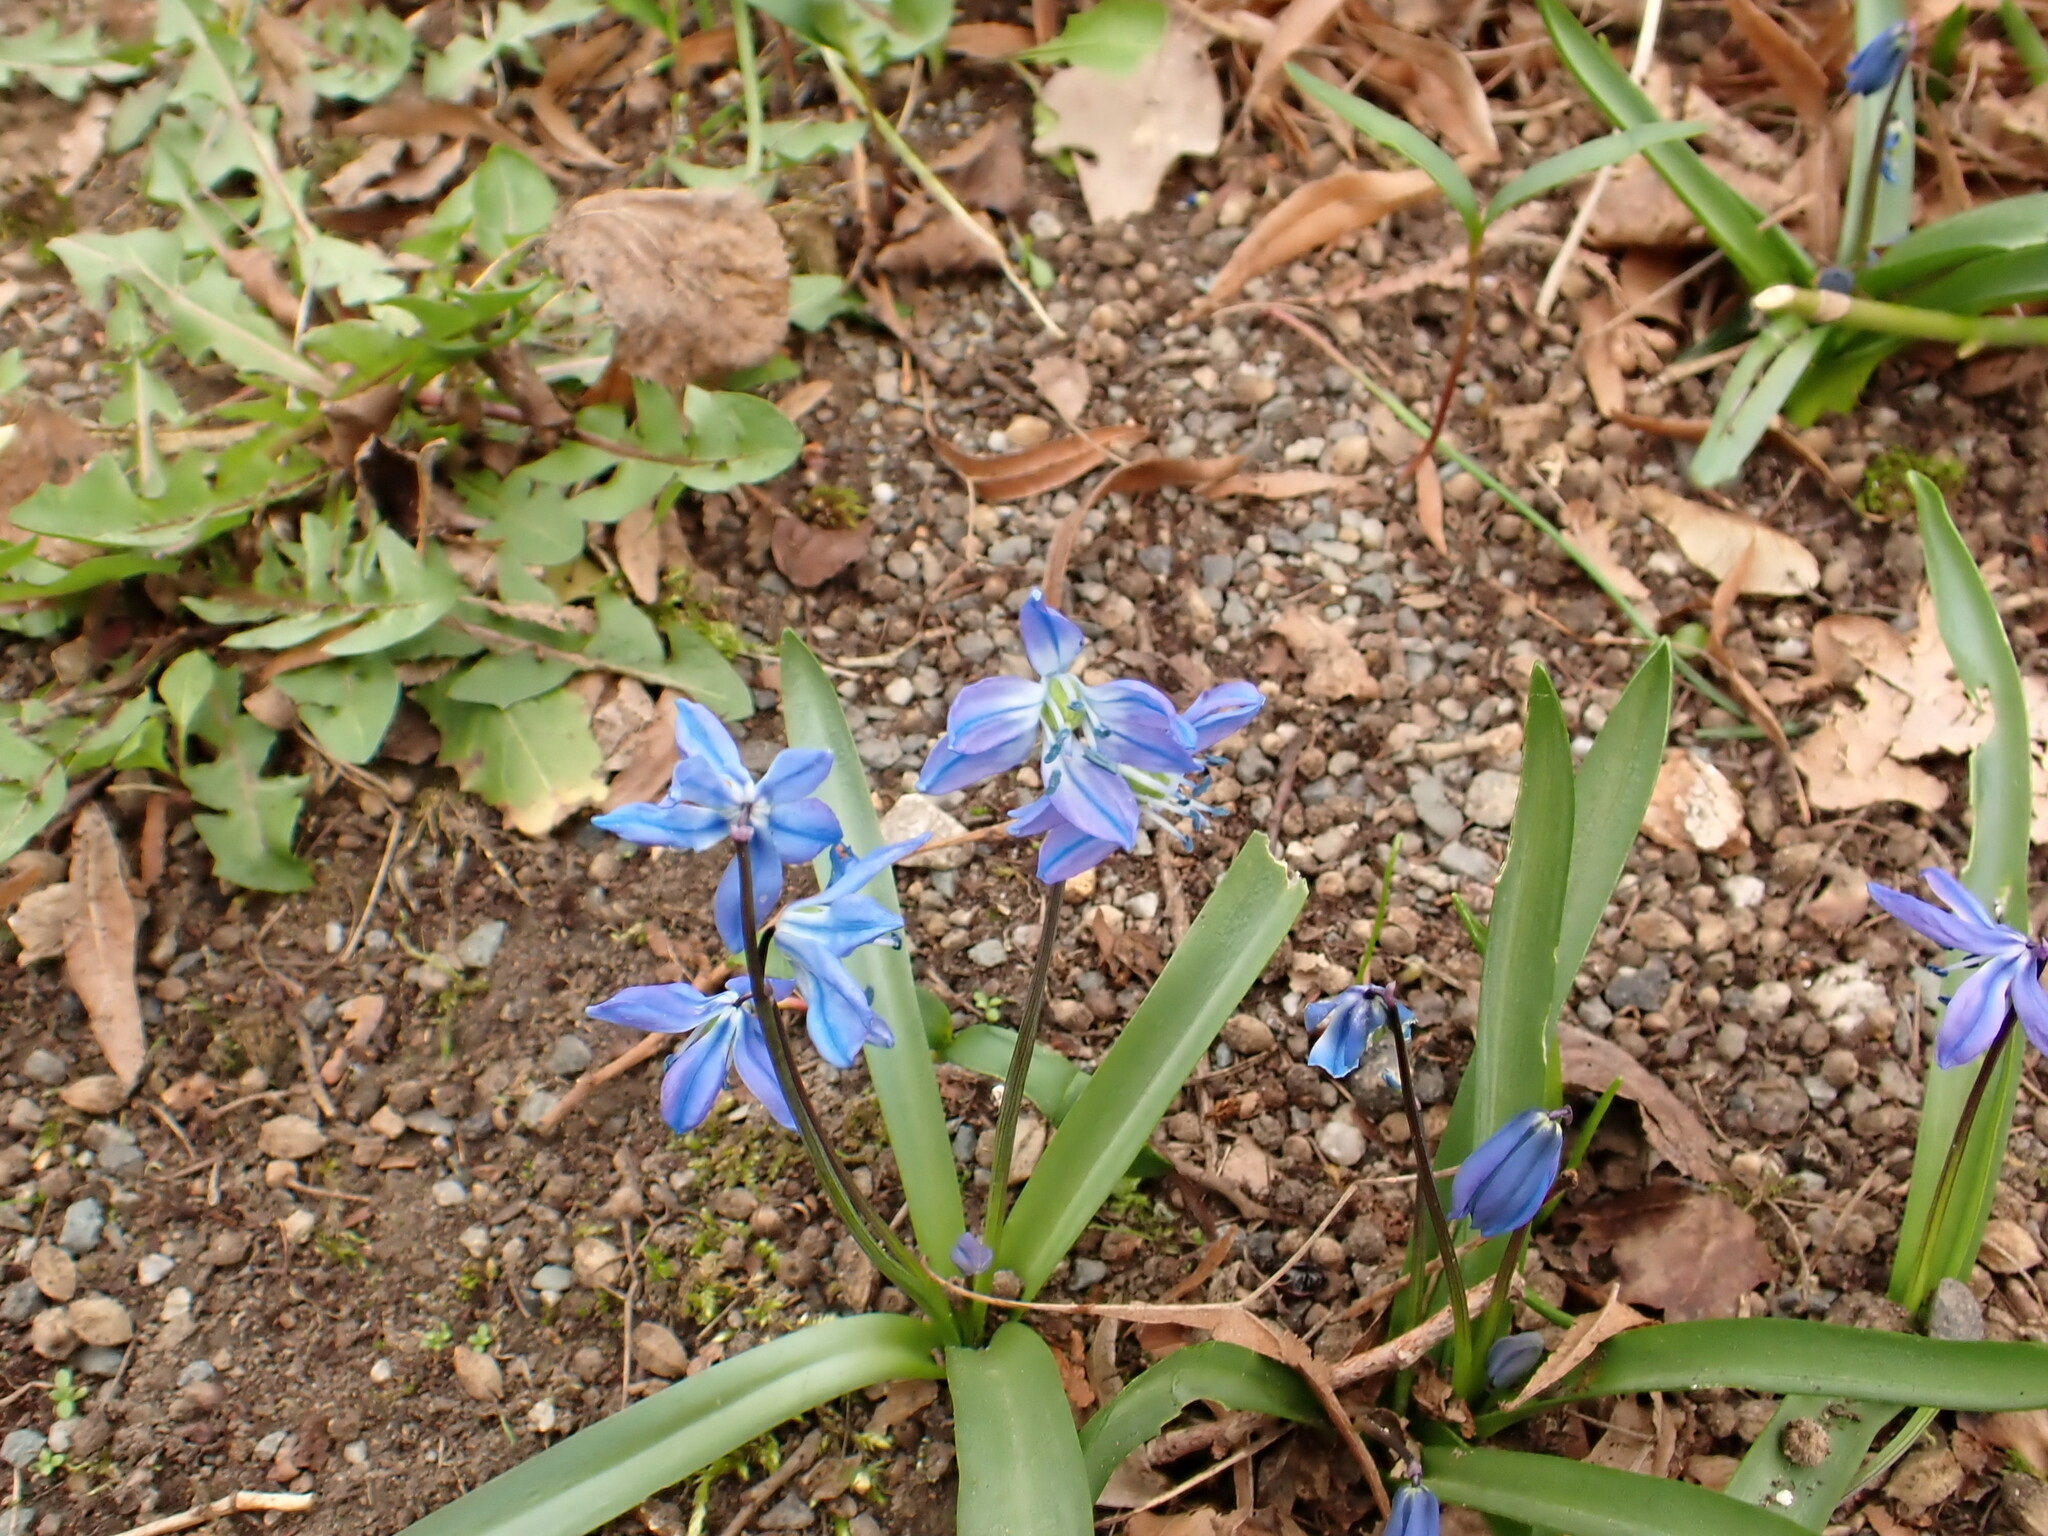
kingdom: Plantae
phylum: Tracheophyta
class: Liliopsida
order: Asparagales
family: Asparagaceae
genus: Scilla
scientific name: Scilla siberica
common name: Siberian squill
